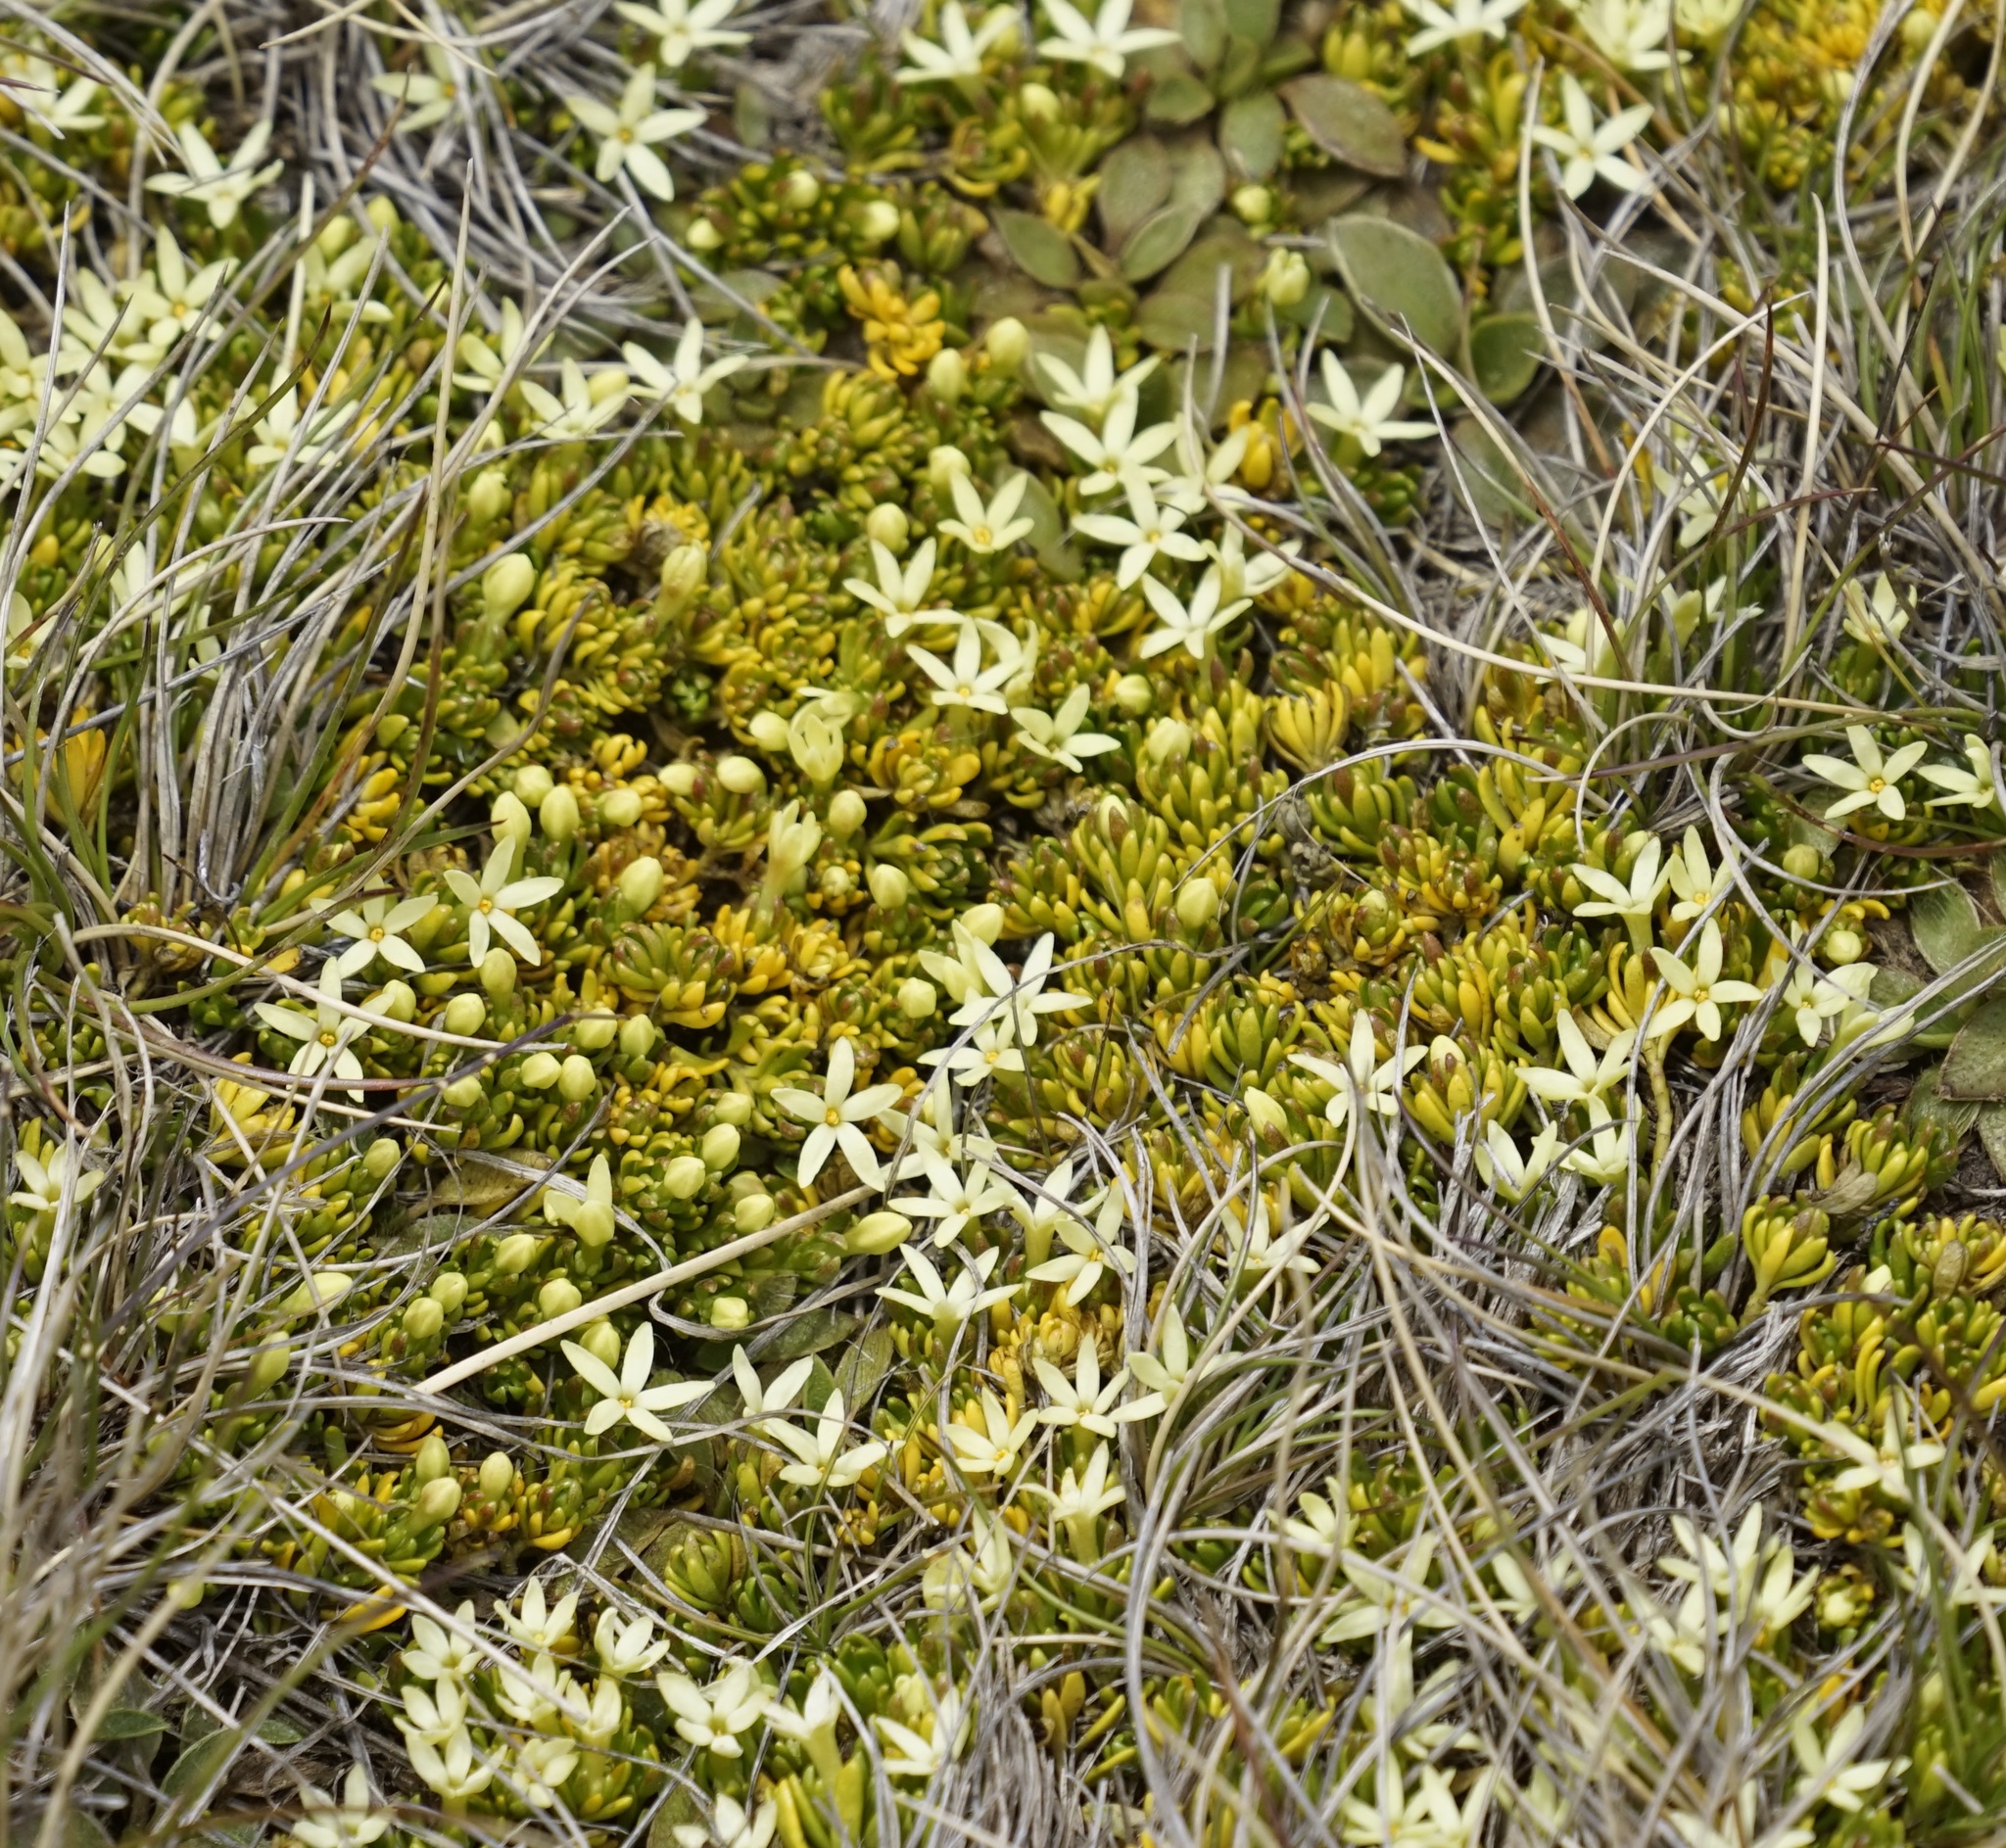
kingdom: Plantae
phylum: Tracheophyta
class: Magnoliopsida
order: Celastrales
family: Celastraceae
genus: Stackhousia
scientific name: Stackhousia pulvinaris
